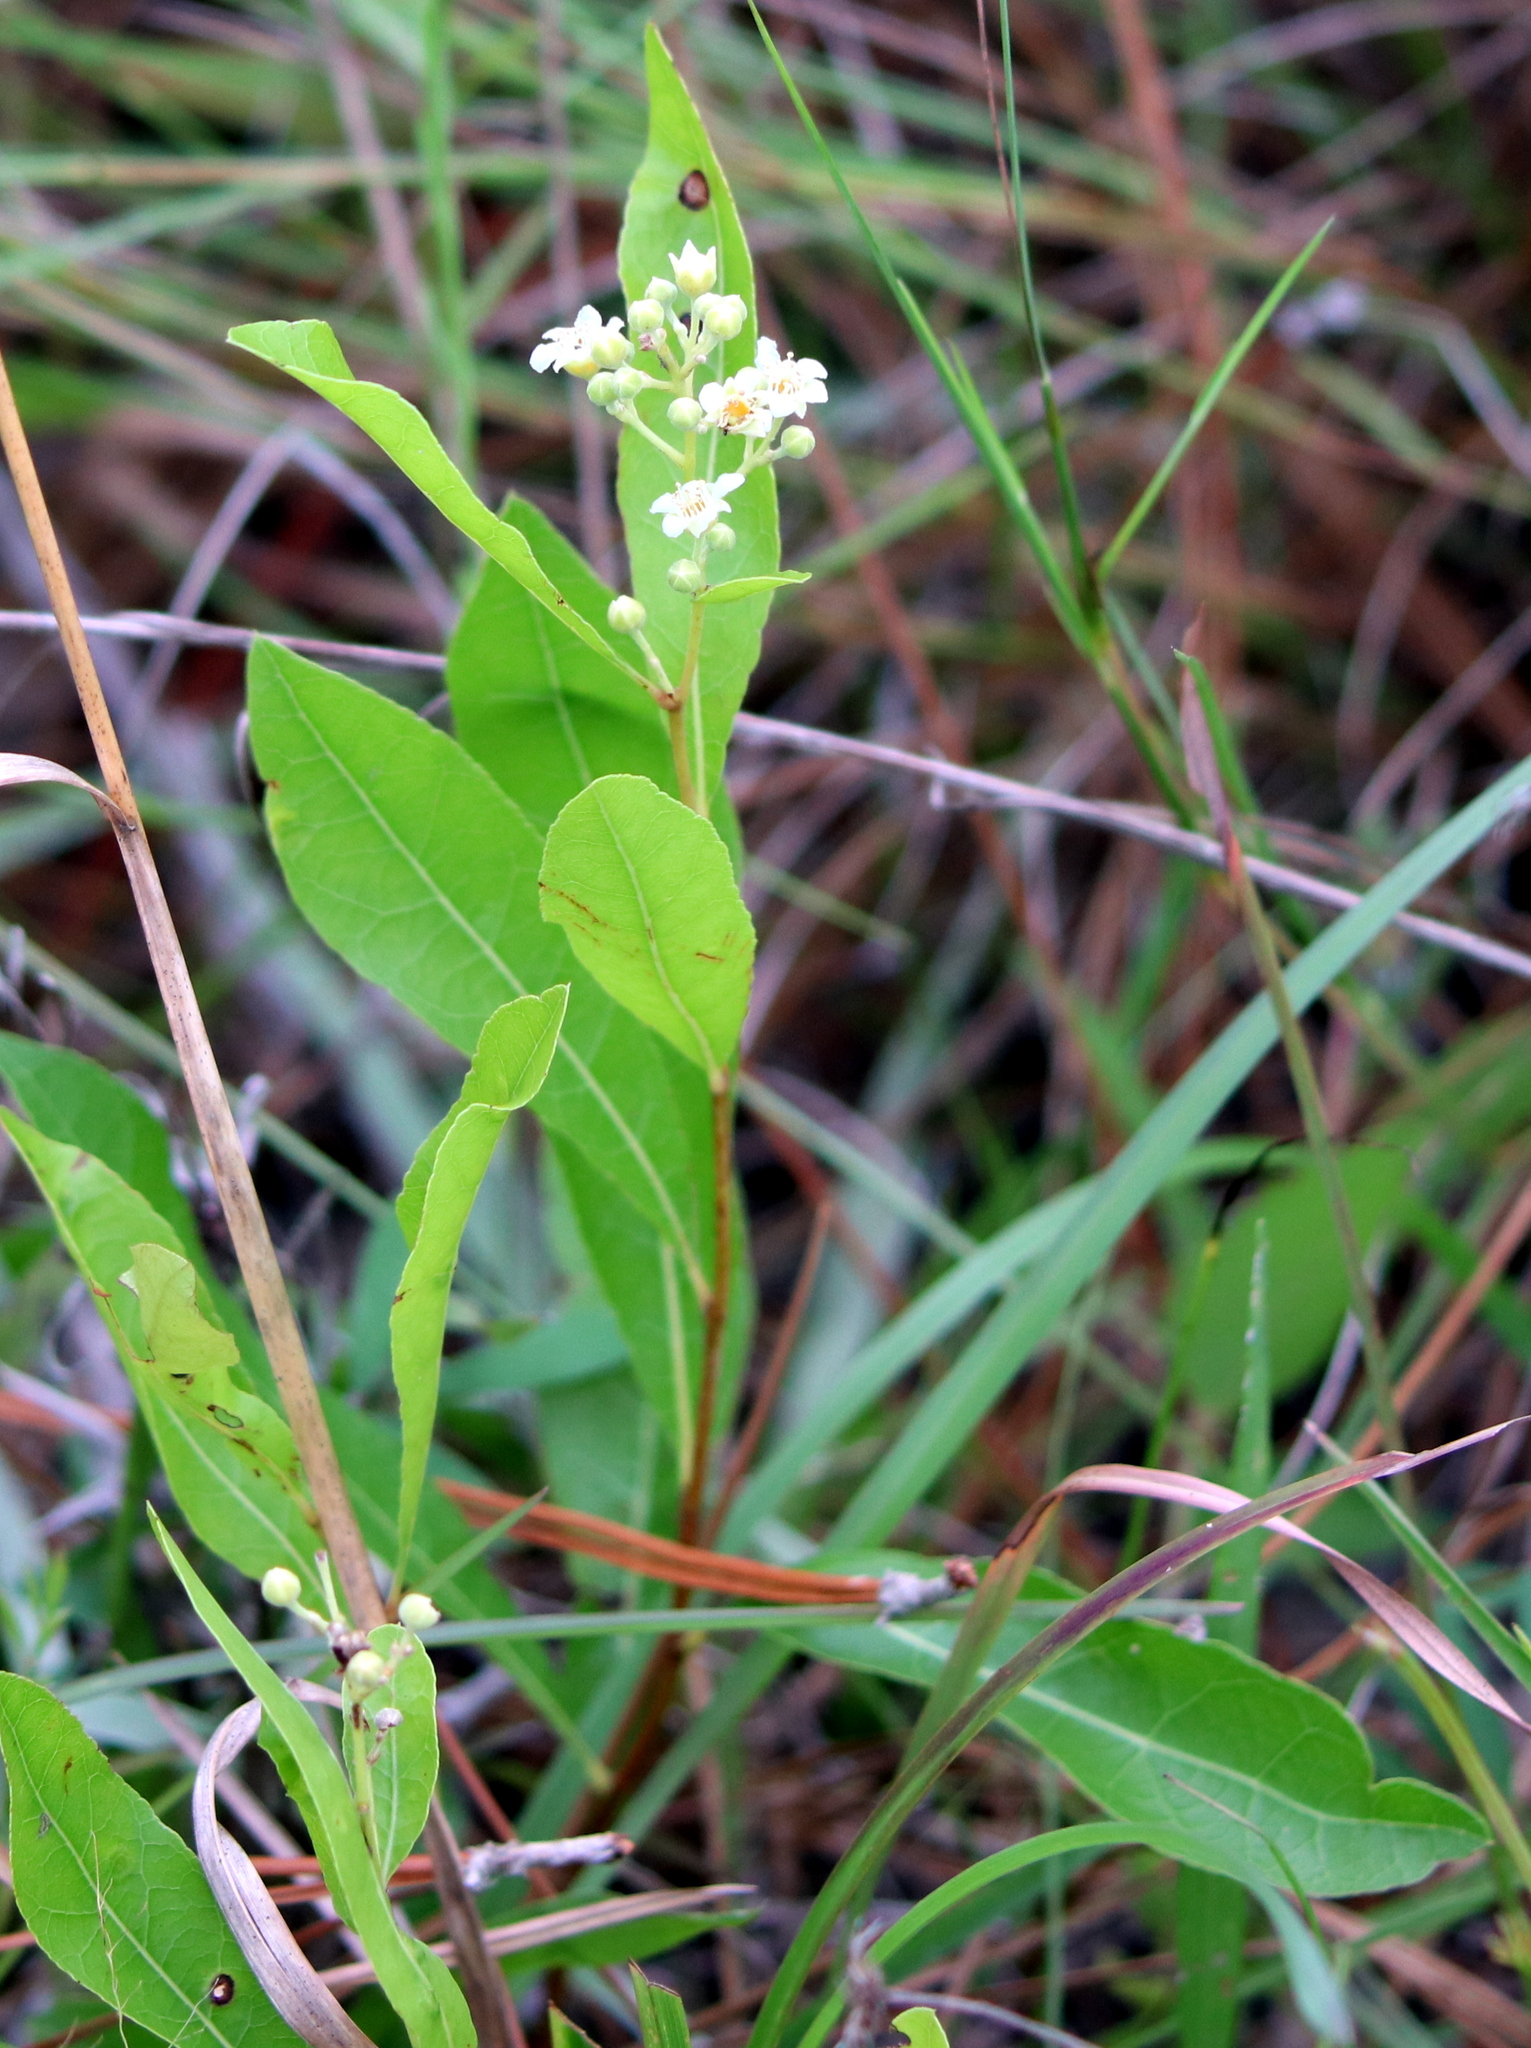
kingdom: Plantae
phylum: Tracheophyta
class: Magnoliopsida
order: Gentianales
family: Apocynaceae
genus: Apocynum
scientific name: Apocynum cannabinum
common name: Hemp dogbane
